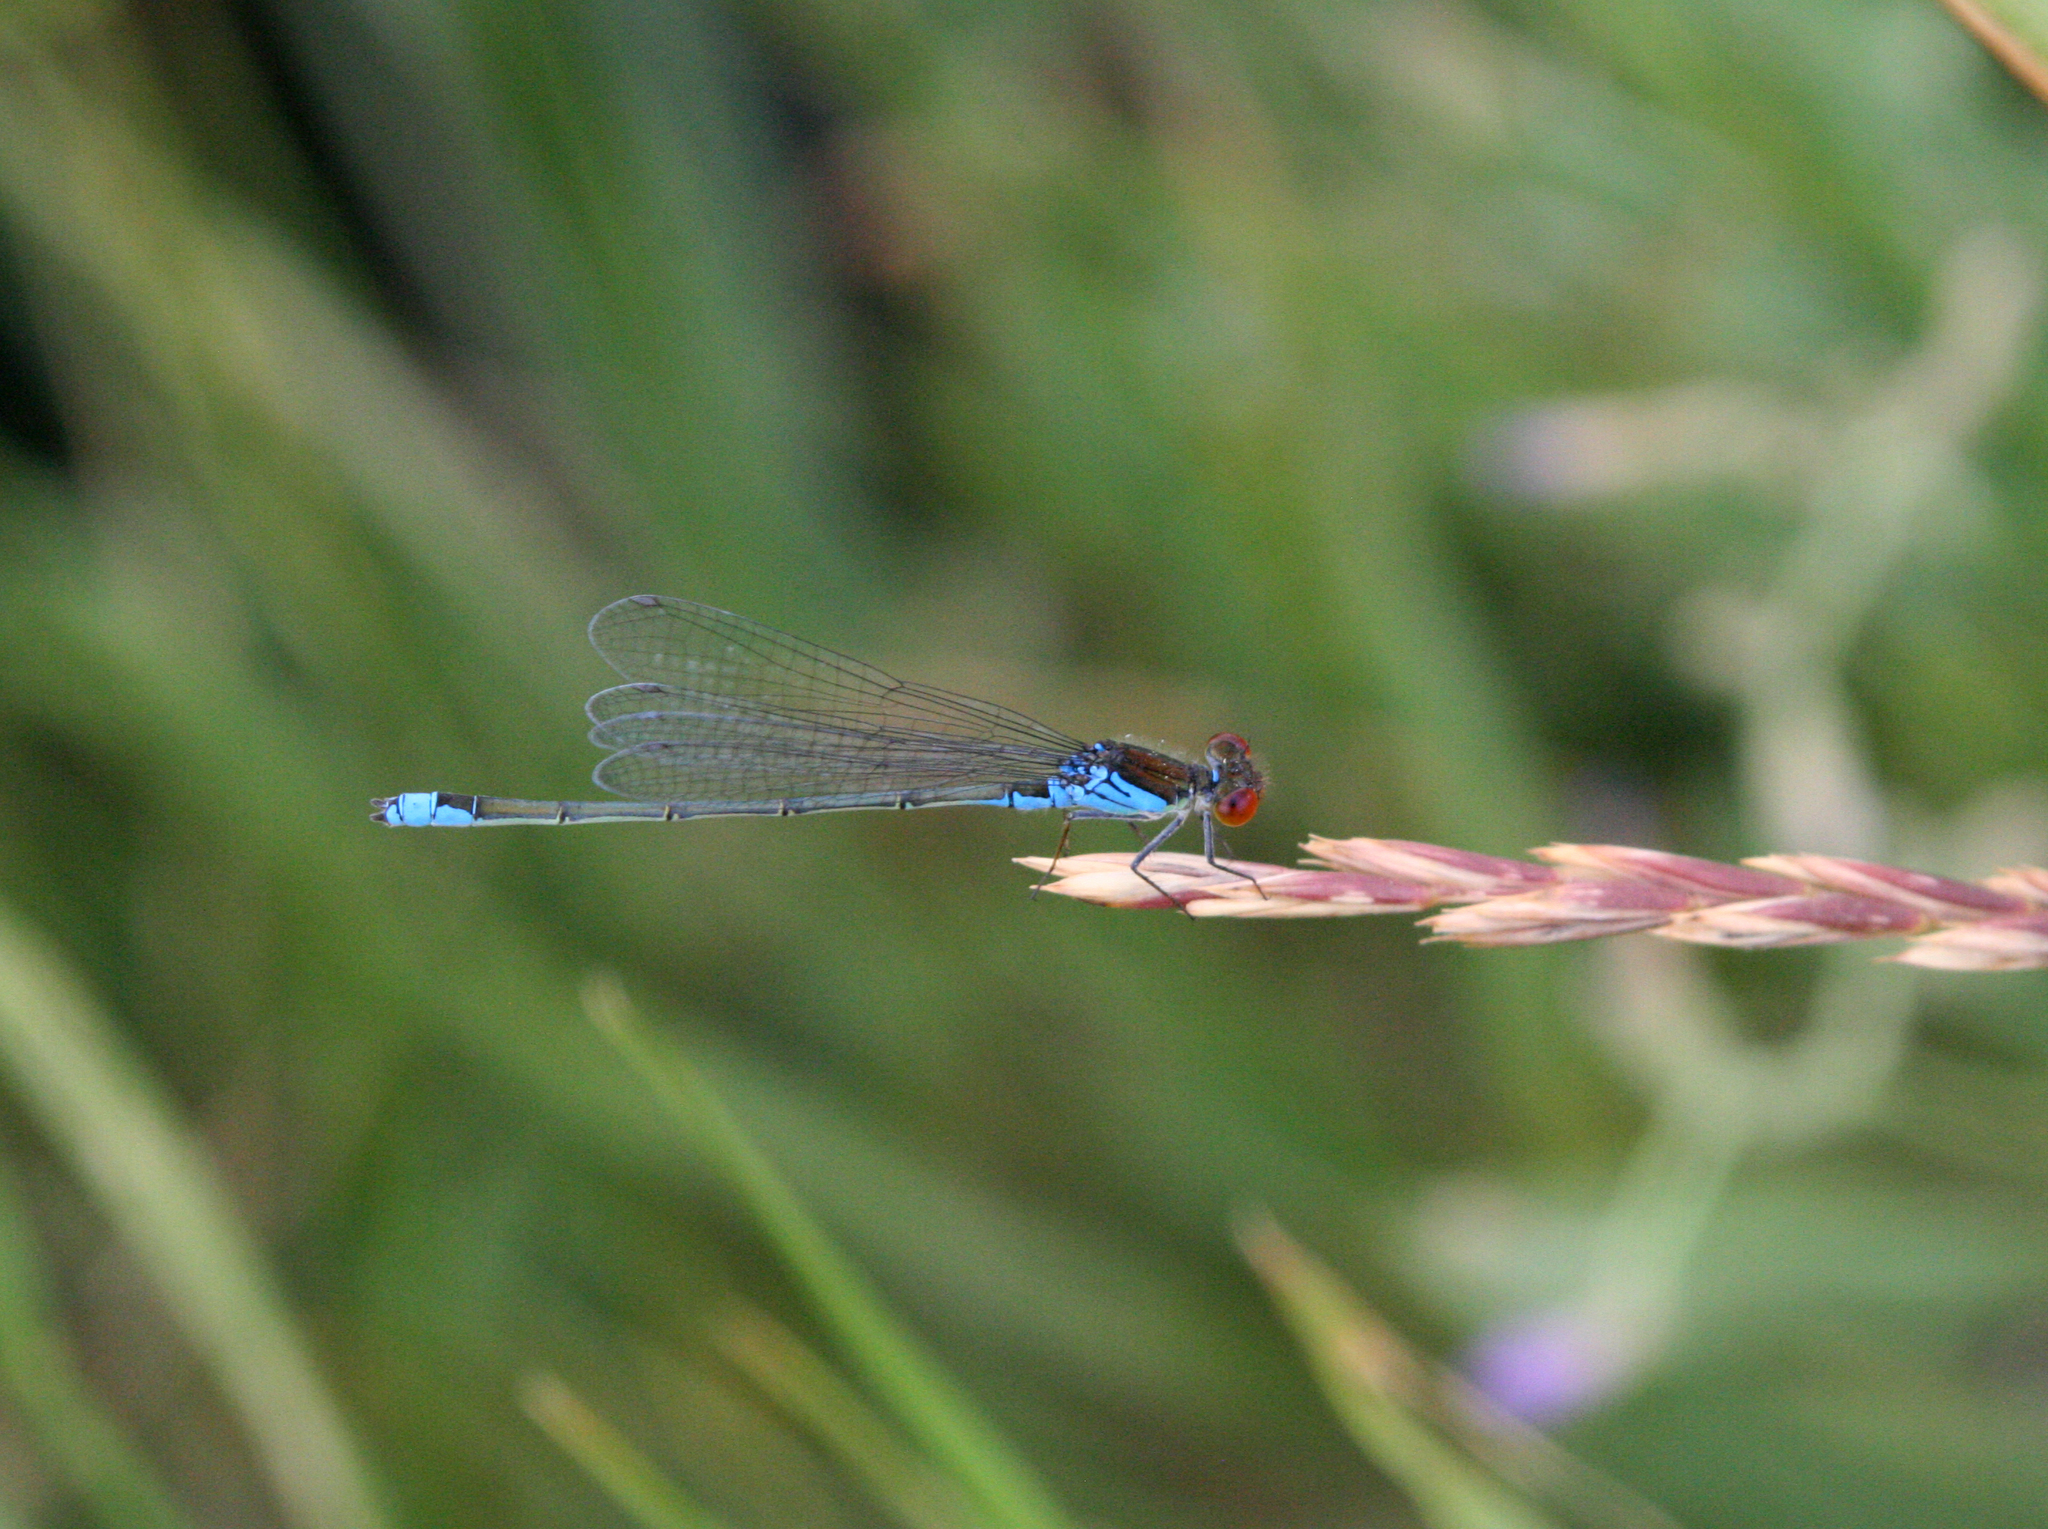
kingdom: Animalia
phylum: Arthropoda
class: Insecta
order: Odonata
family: Coenagrionidae
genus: Erythromma
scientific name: Erythromma viridulum
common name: Small red-eyed damselfly
